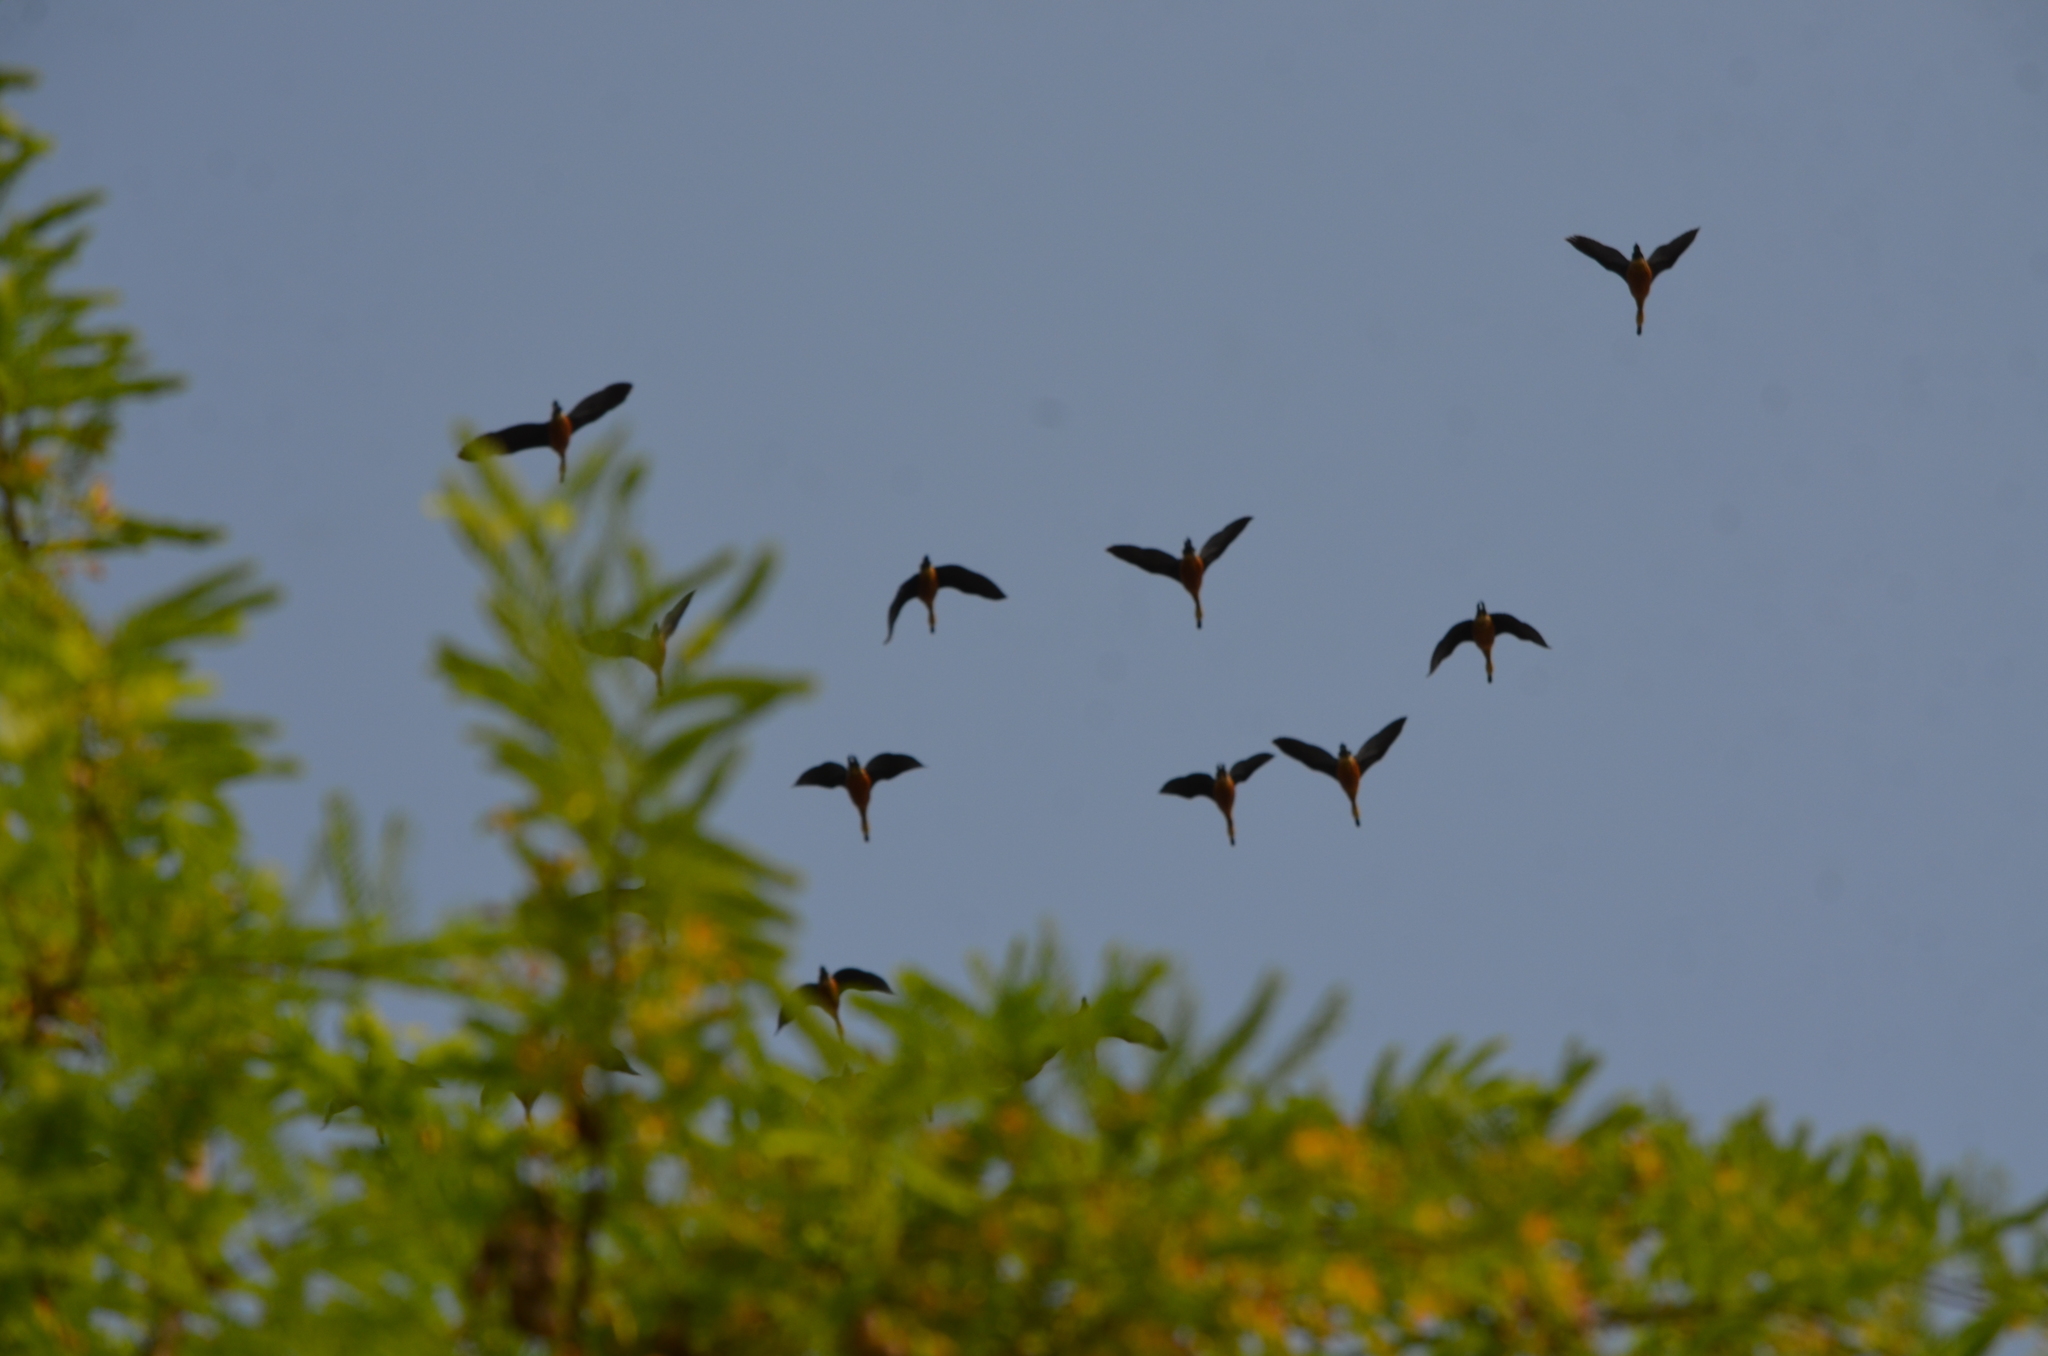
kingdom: Animalia
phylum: Chordata
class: Aves
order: Anseriformes
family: Anatidae
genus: Dendrocygna
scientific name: Dendrocygna javanica
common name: Lesser whistling-duck
